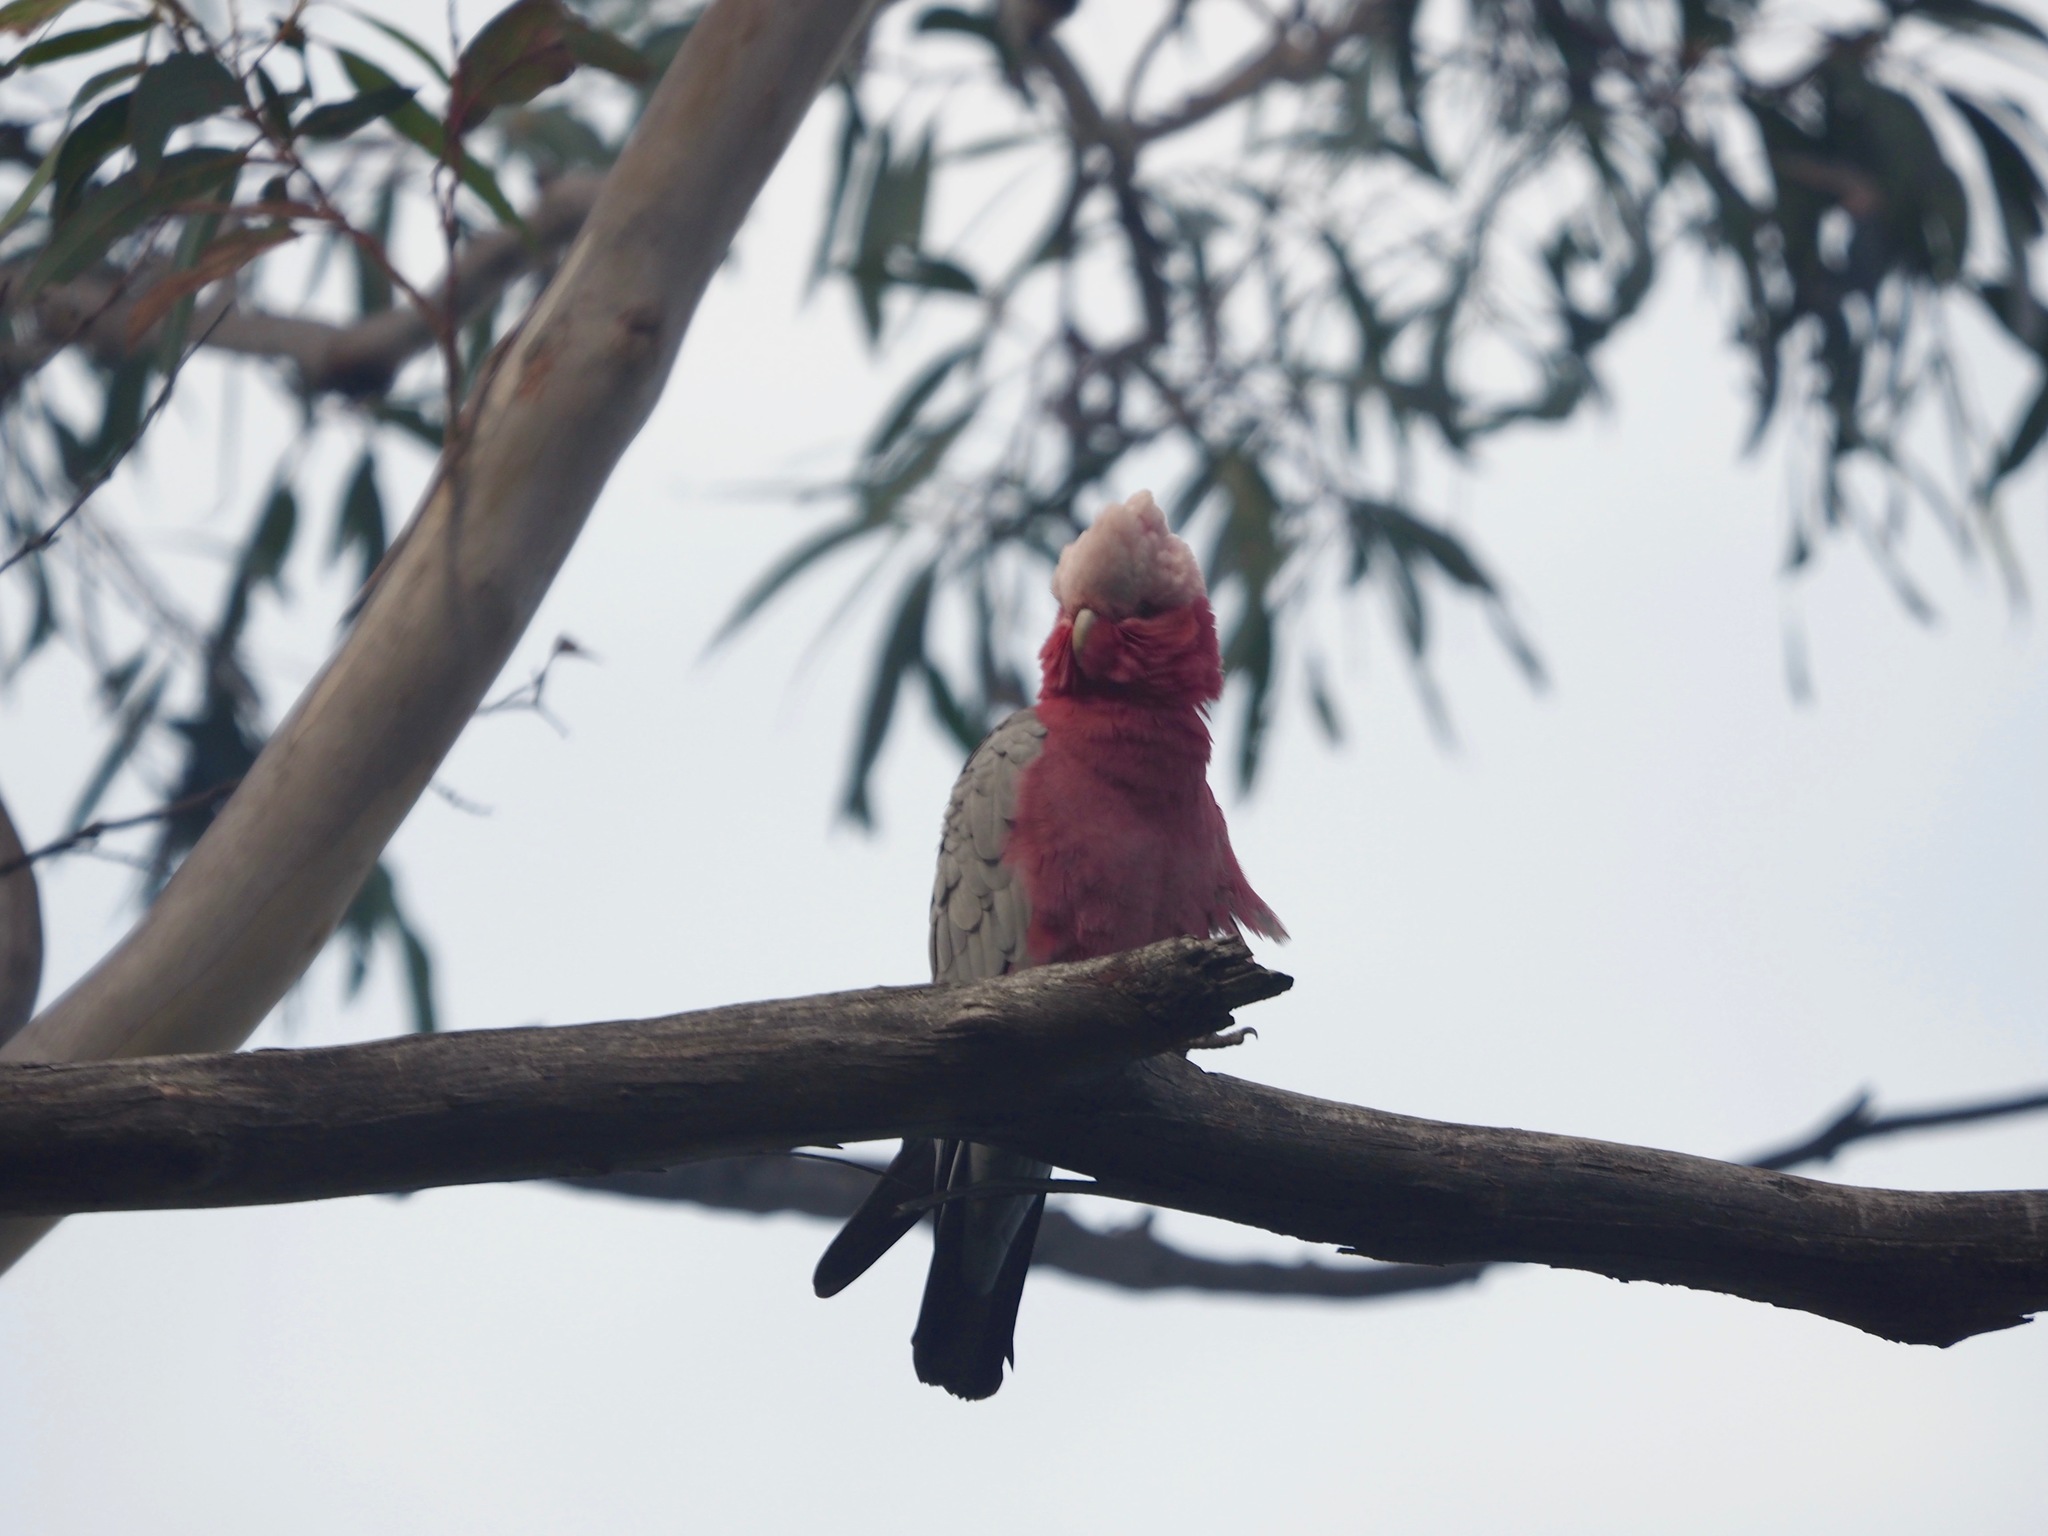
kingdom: Animalia
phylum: Chordata
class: Aves
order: Psittaciformes
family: Psittacidae
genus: Eolophus
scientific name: Eolophus roseicapilla
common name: Galah
